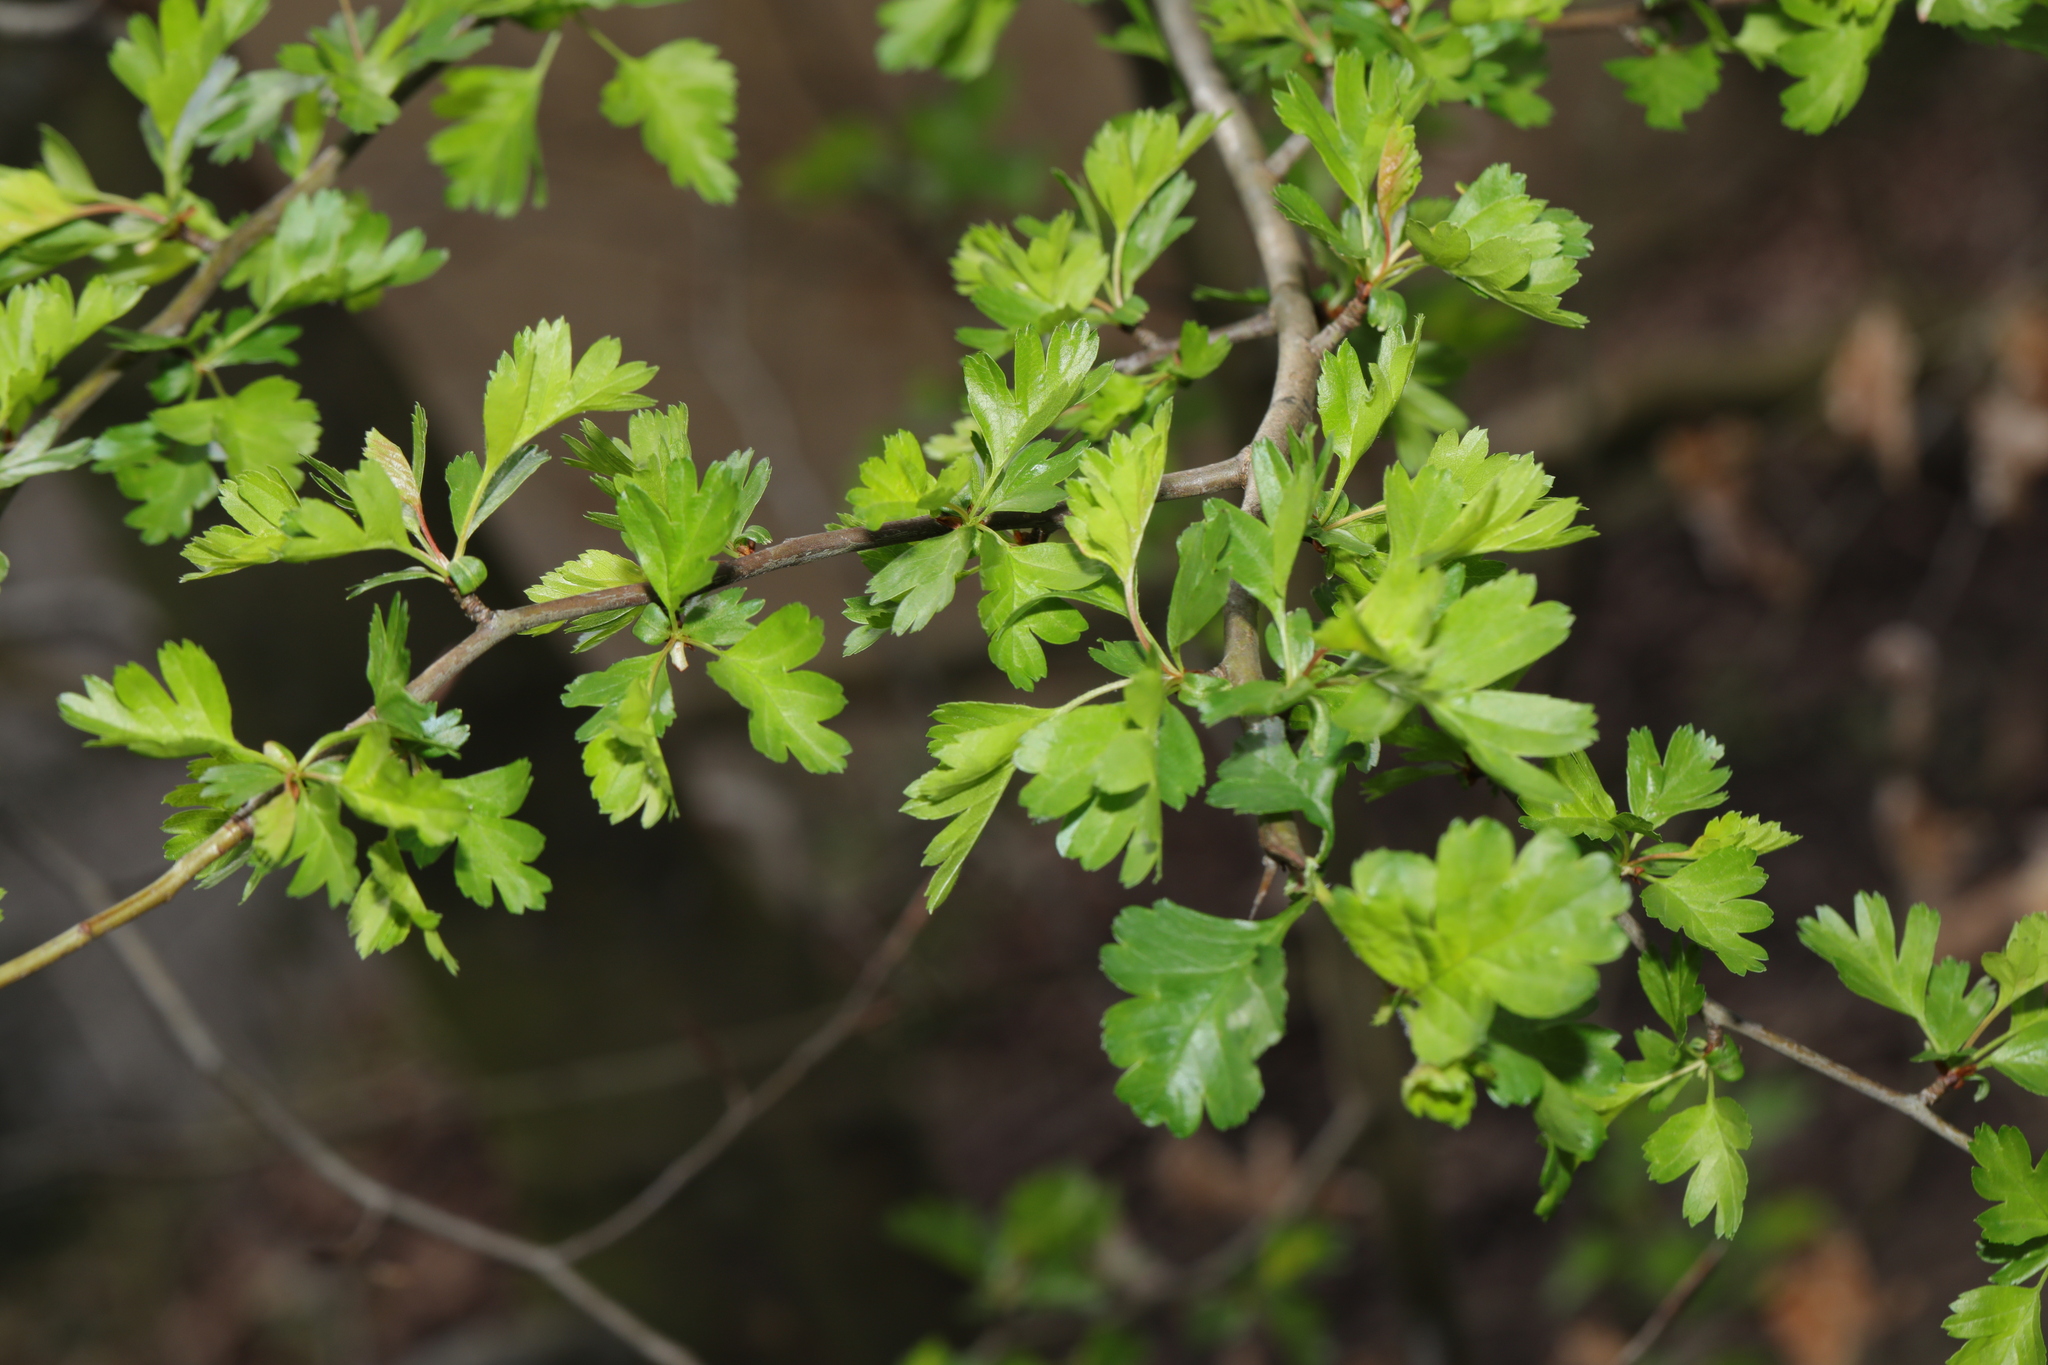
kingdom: Plantae
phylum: Tracheophyta
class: Magnoliopsida
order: Rosales
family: Rosaceae
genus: Crataegus
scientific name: Crataegus monogyna
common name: Hawthorn
